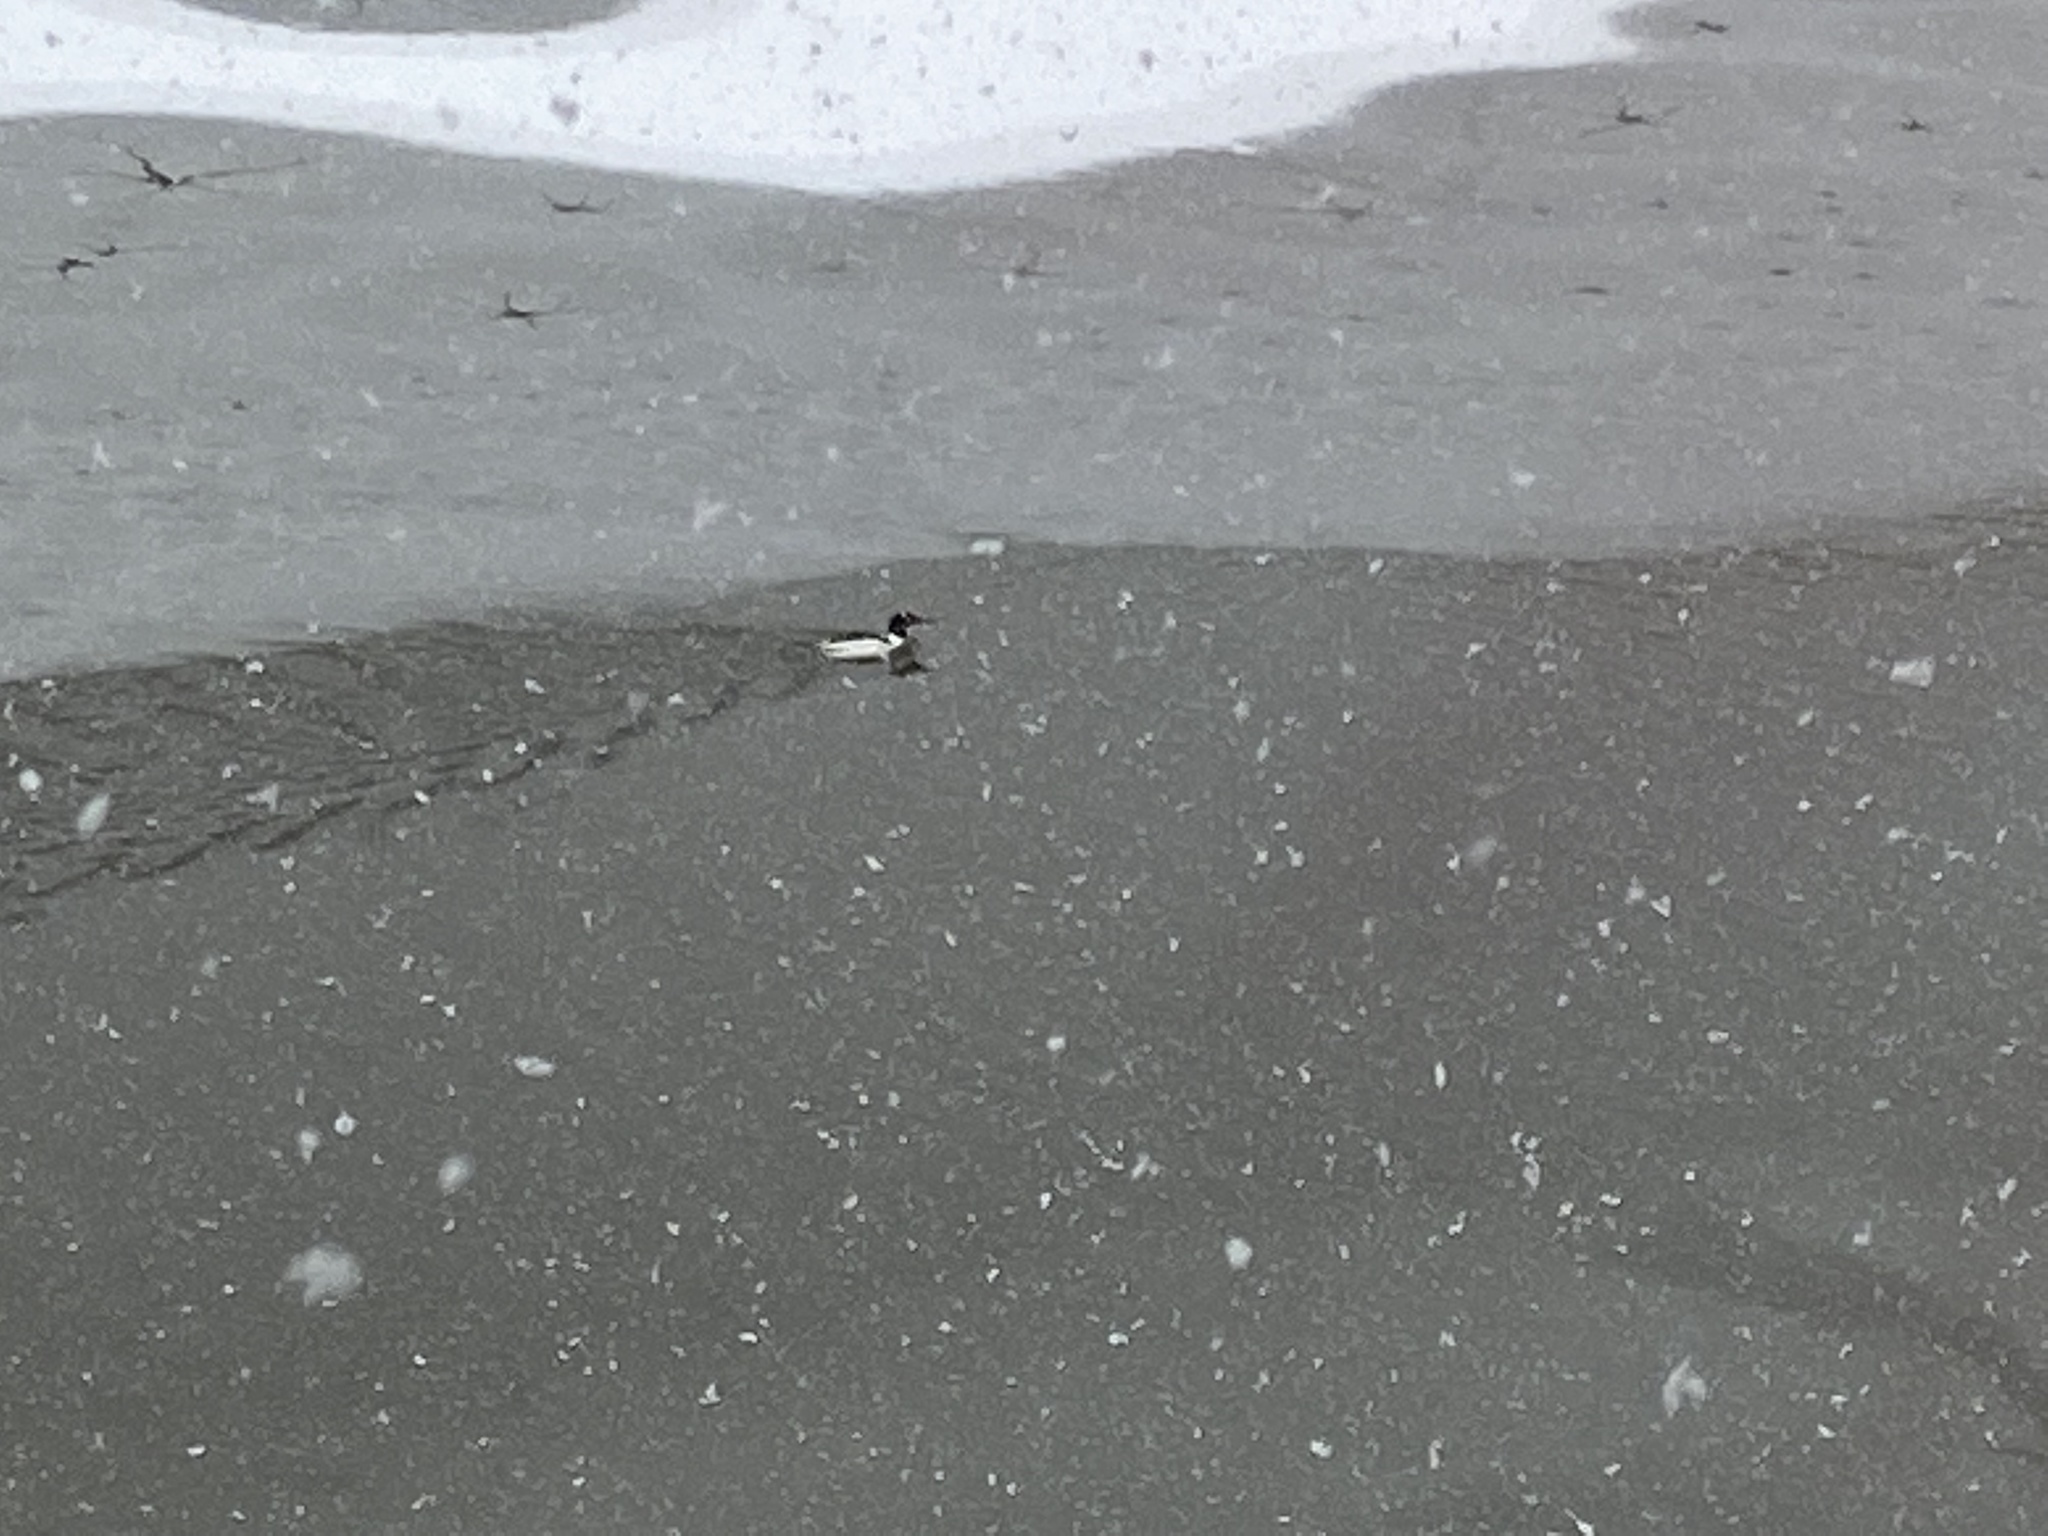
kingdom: Animalia
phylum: Chordata
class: Aves
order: Anseriformes
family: Anatidae
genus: Mergus
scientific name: Mergus merganser
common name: Common merganser
